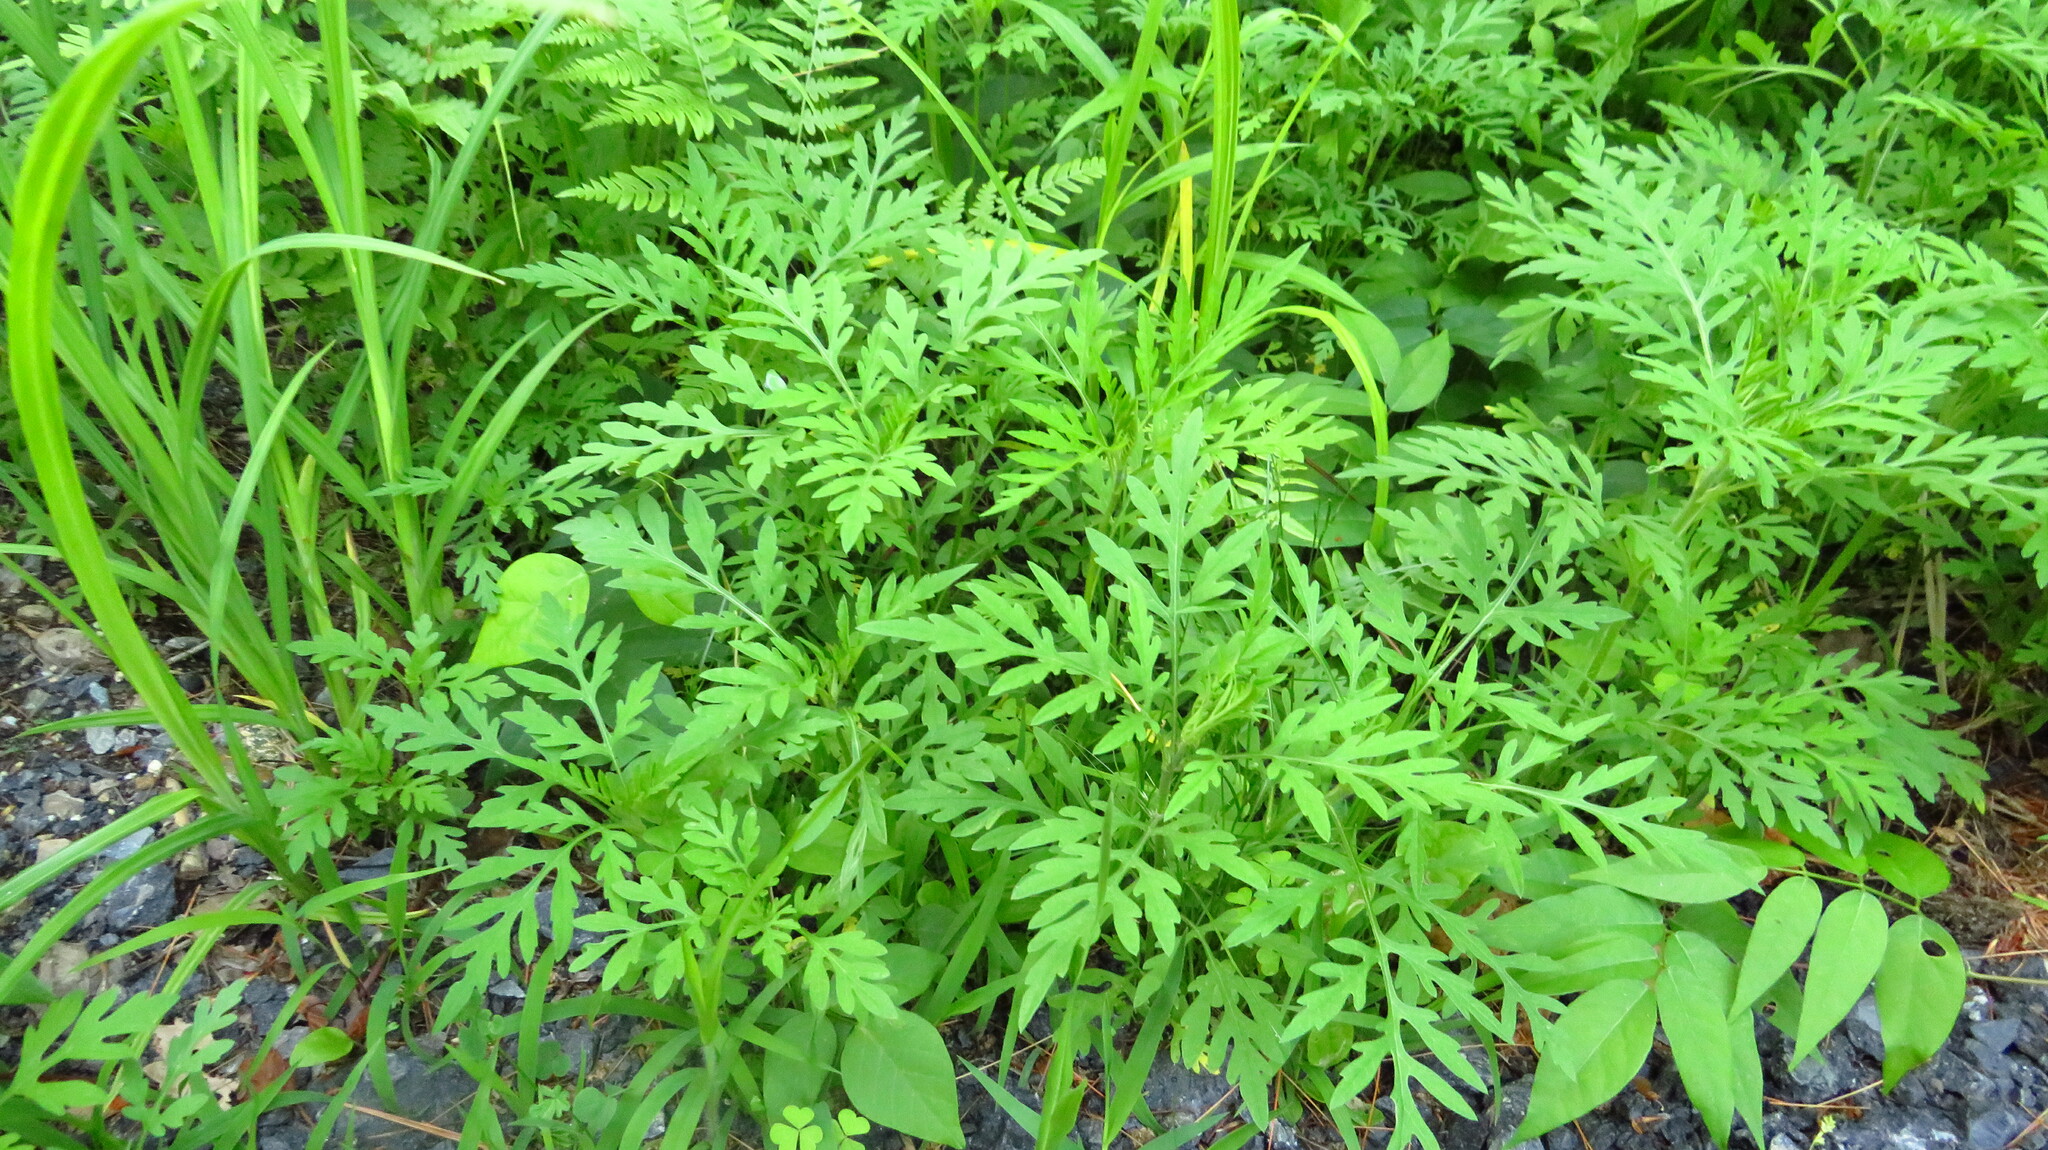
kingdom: Plantae
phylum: Tracheophyta
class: Magnoliopsida
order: Asterales
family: Asteraceae
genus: Ambrosia
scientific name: Ambrosia artemisiifolia
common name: Annual ragweed
